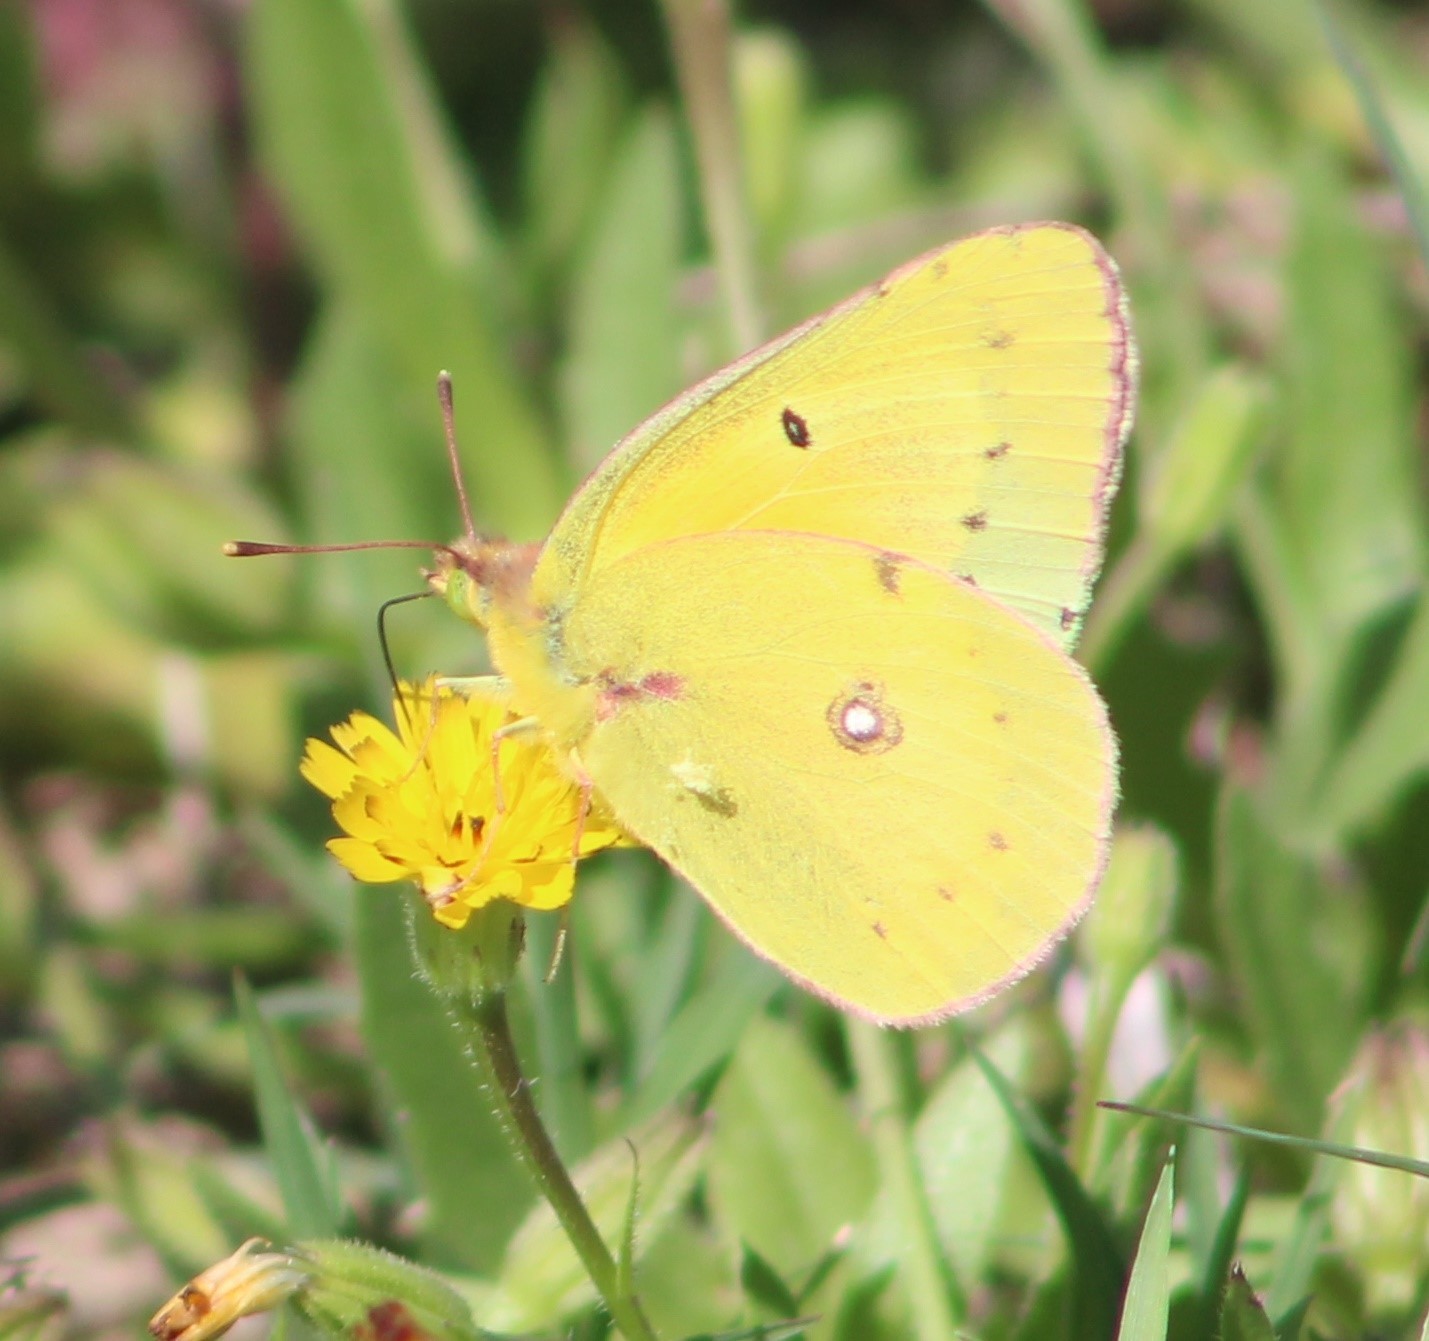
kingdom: Animalia
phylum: Arthropoda
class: Insecta
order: Lepidoptera
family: Pieridae
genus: Colias
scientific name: Colias eurytheme
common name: Alfalfa butterfly
